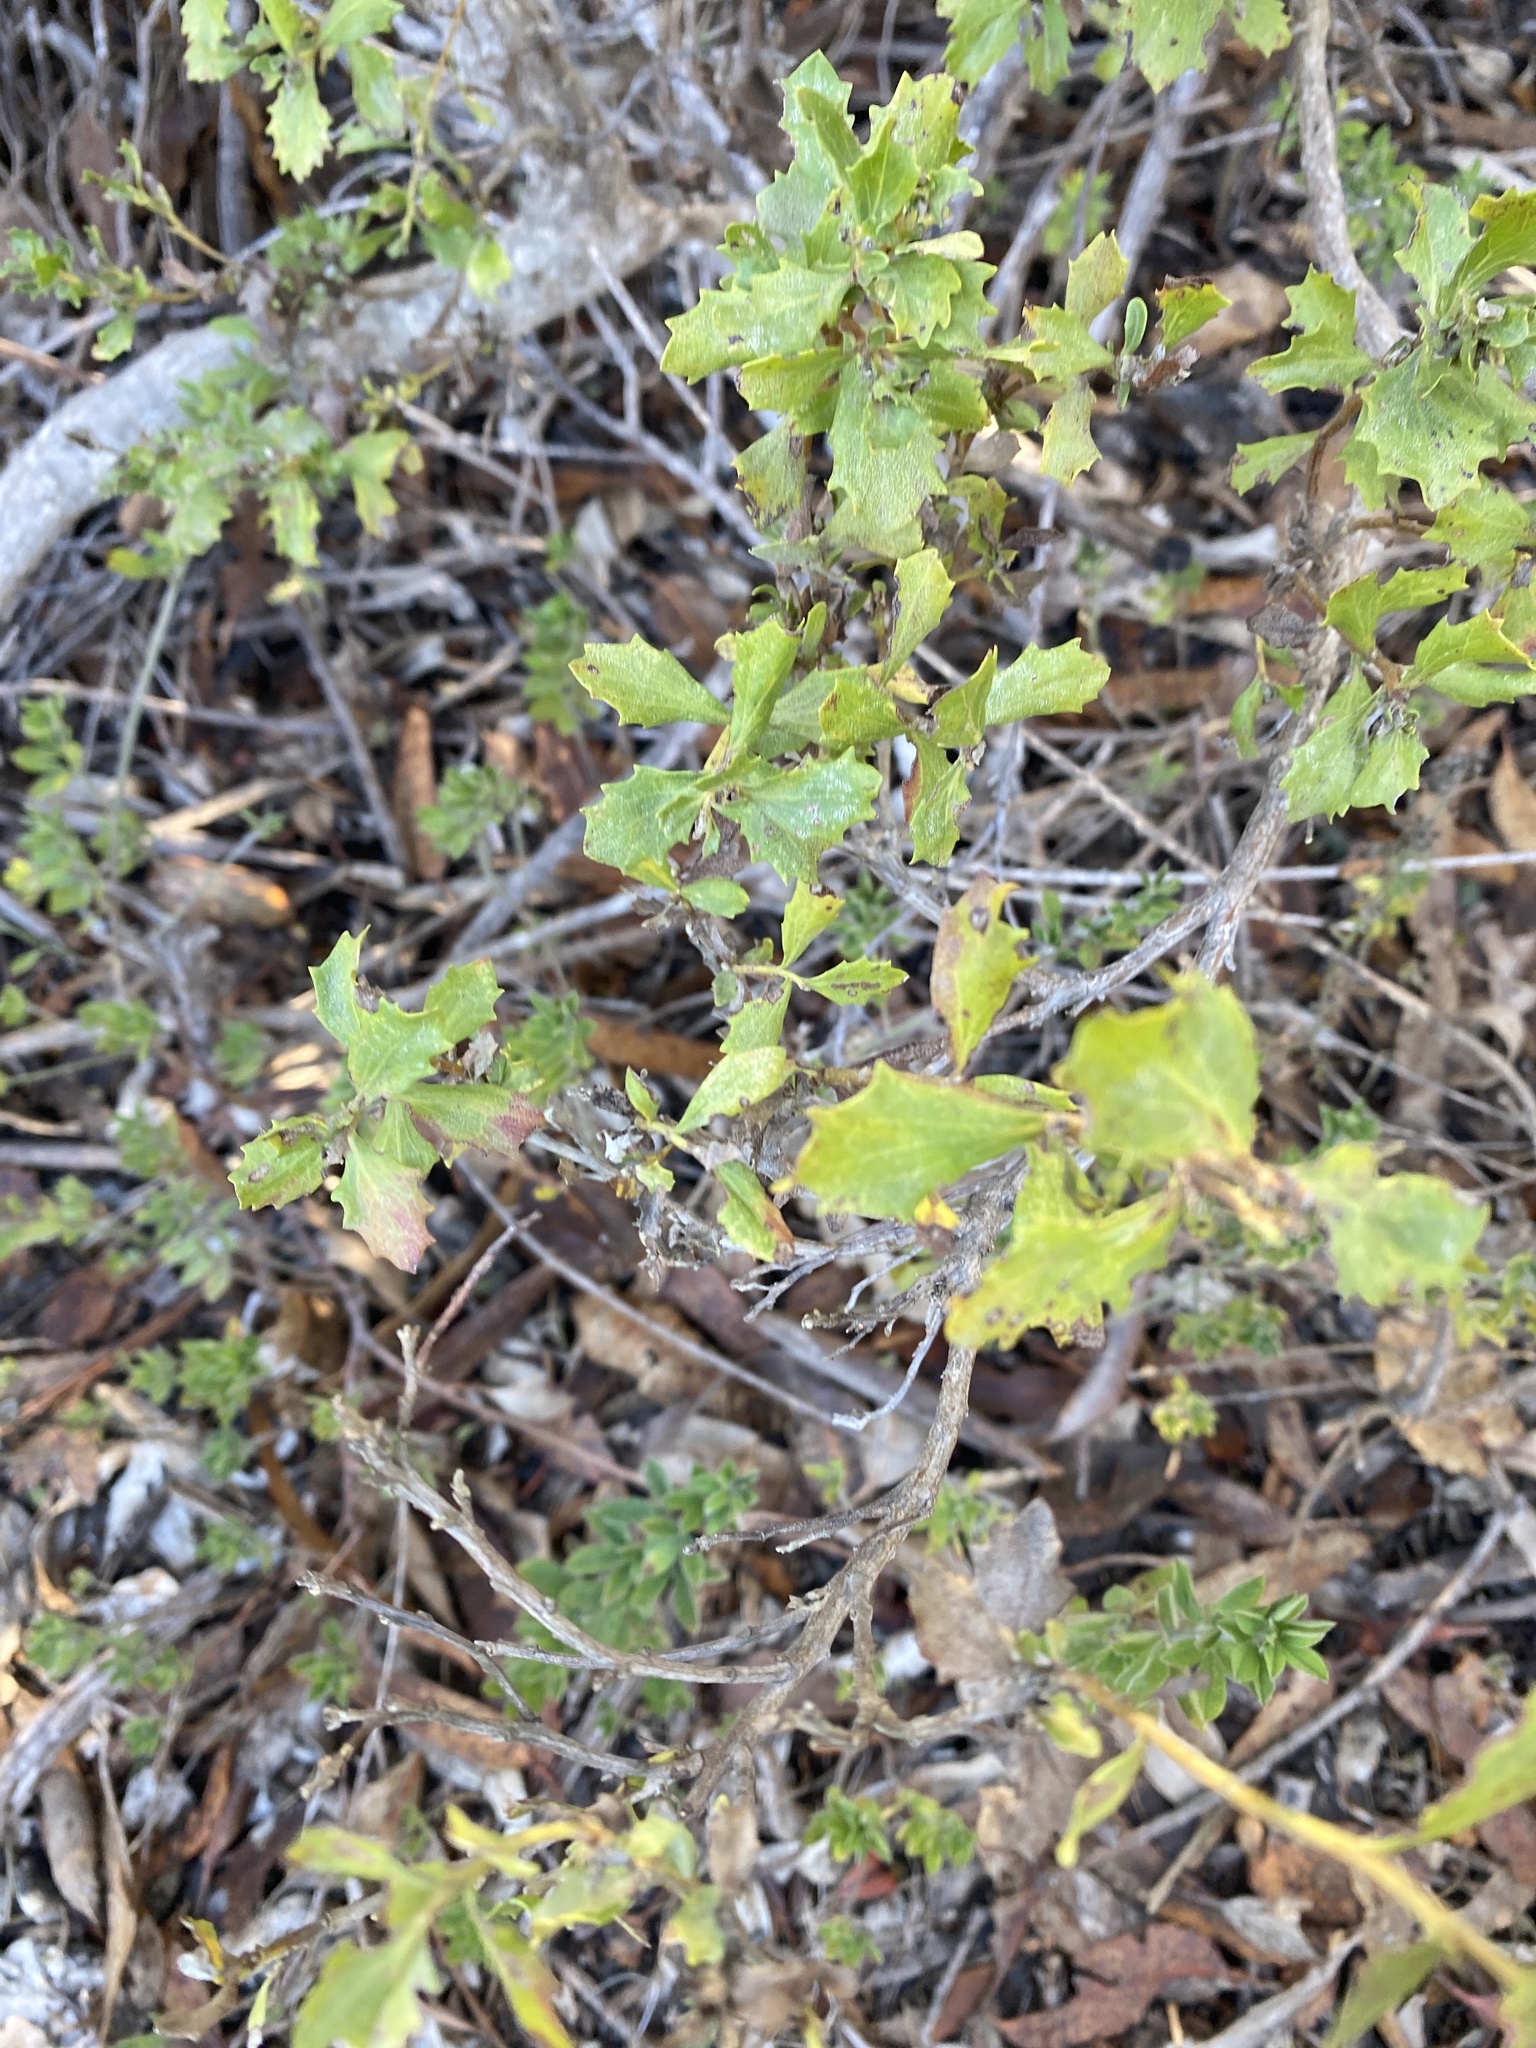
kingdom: Plantae
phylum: Tracheophyta
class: Magnoliopsida
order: Asterales
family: Asteraceae
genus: Baccharis
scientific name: Baccharis pilularis
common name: Coyotebrush
